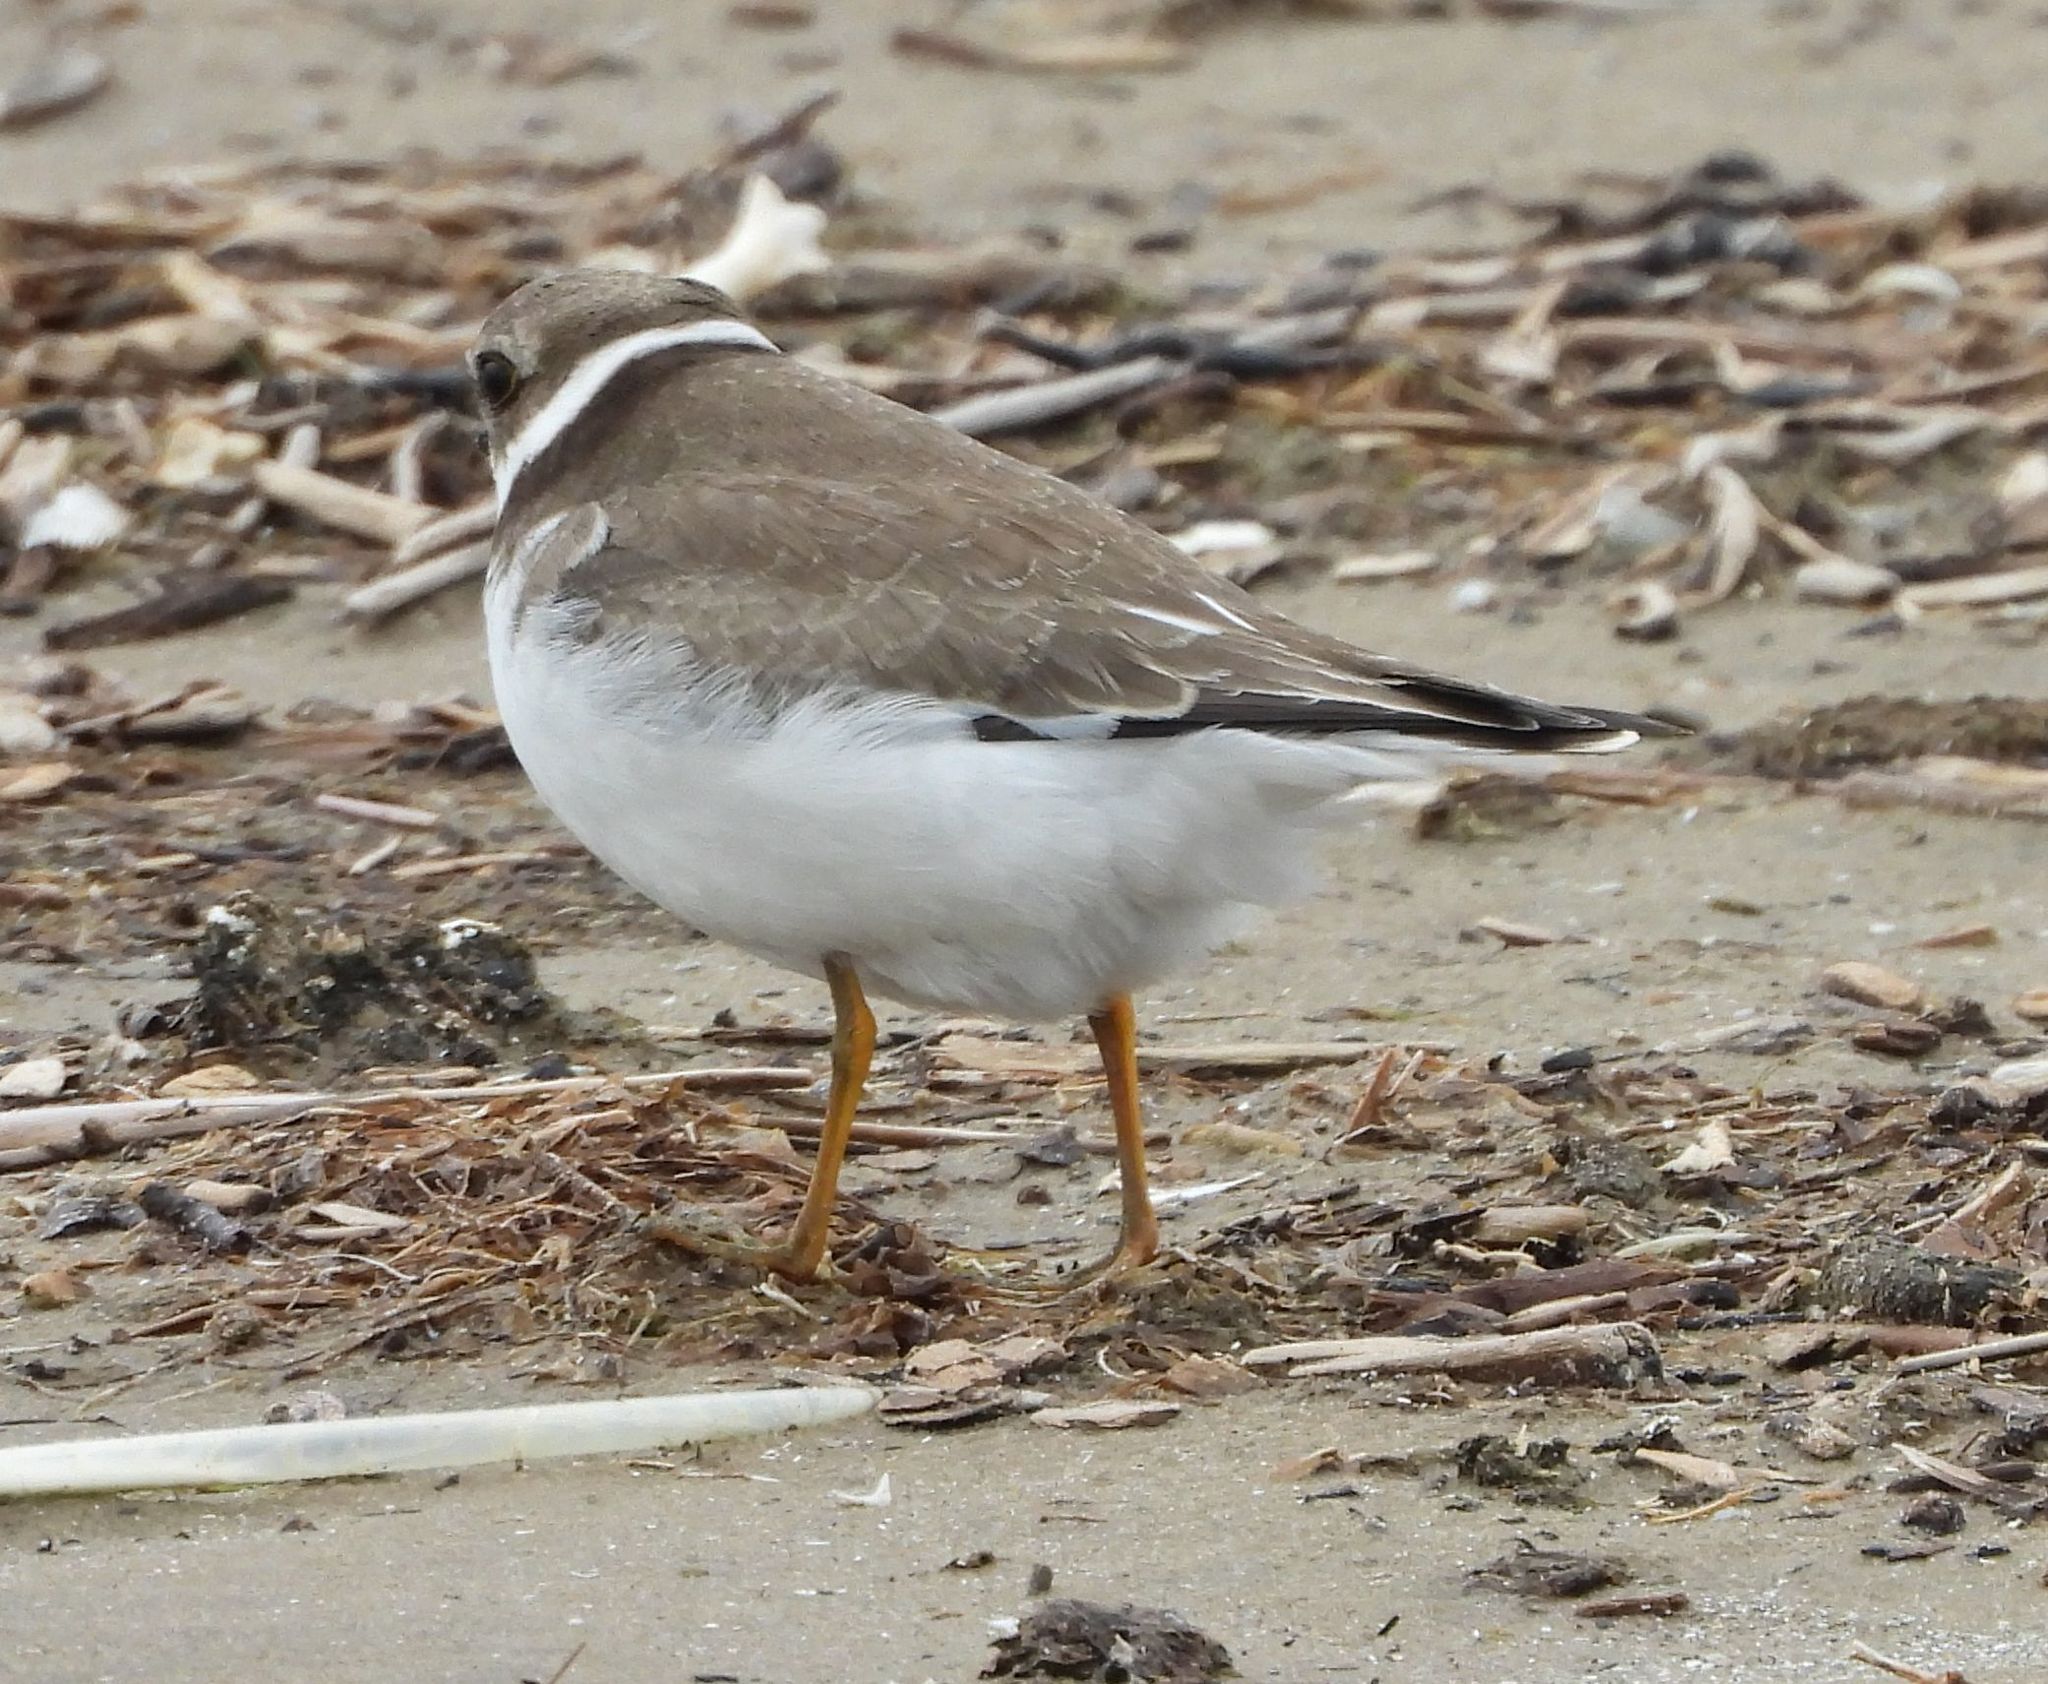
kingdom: Animalia
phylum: Chordata
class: Aves
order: Charadriiformes
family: Charadriidae
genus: Charadrius
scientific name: Charadrius semipalmatus
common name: Semipalmated plover
